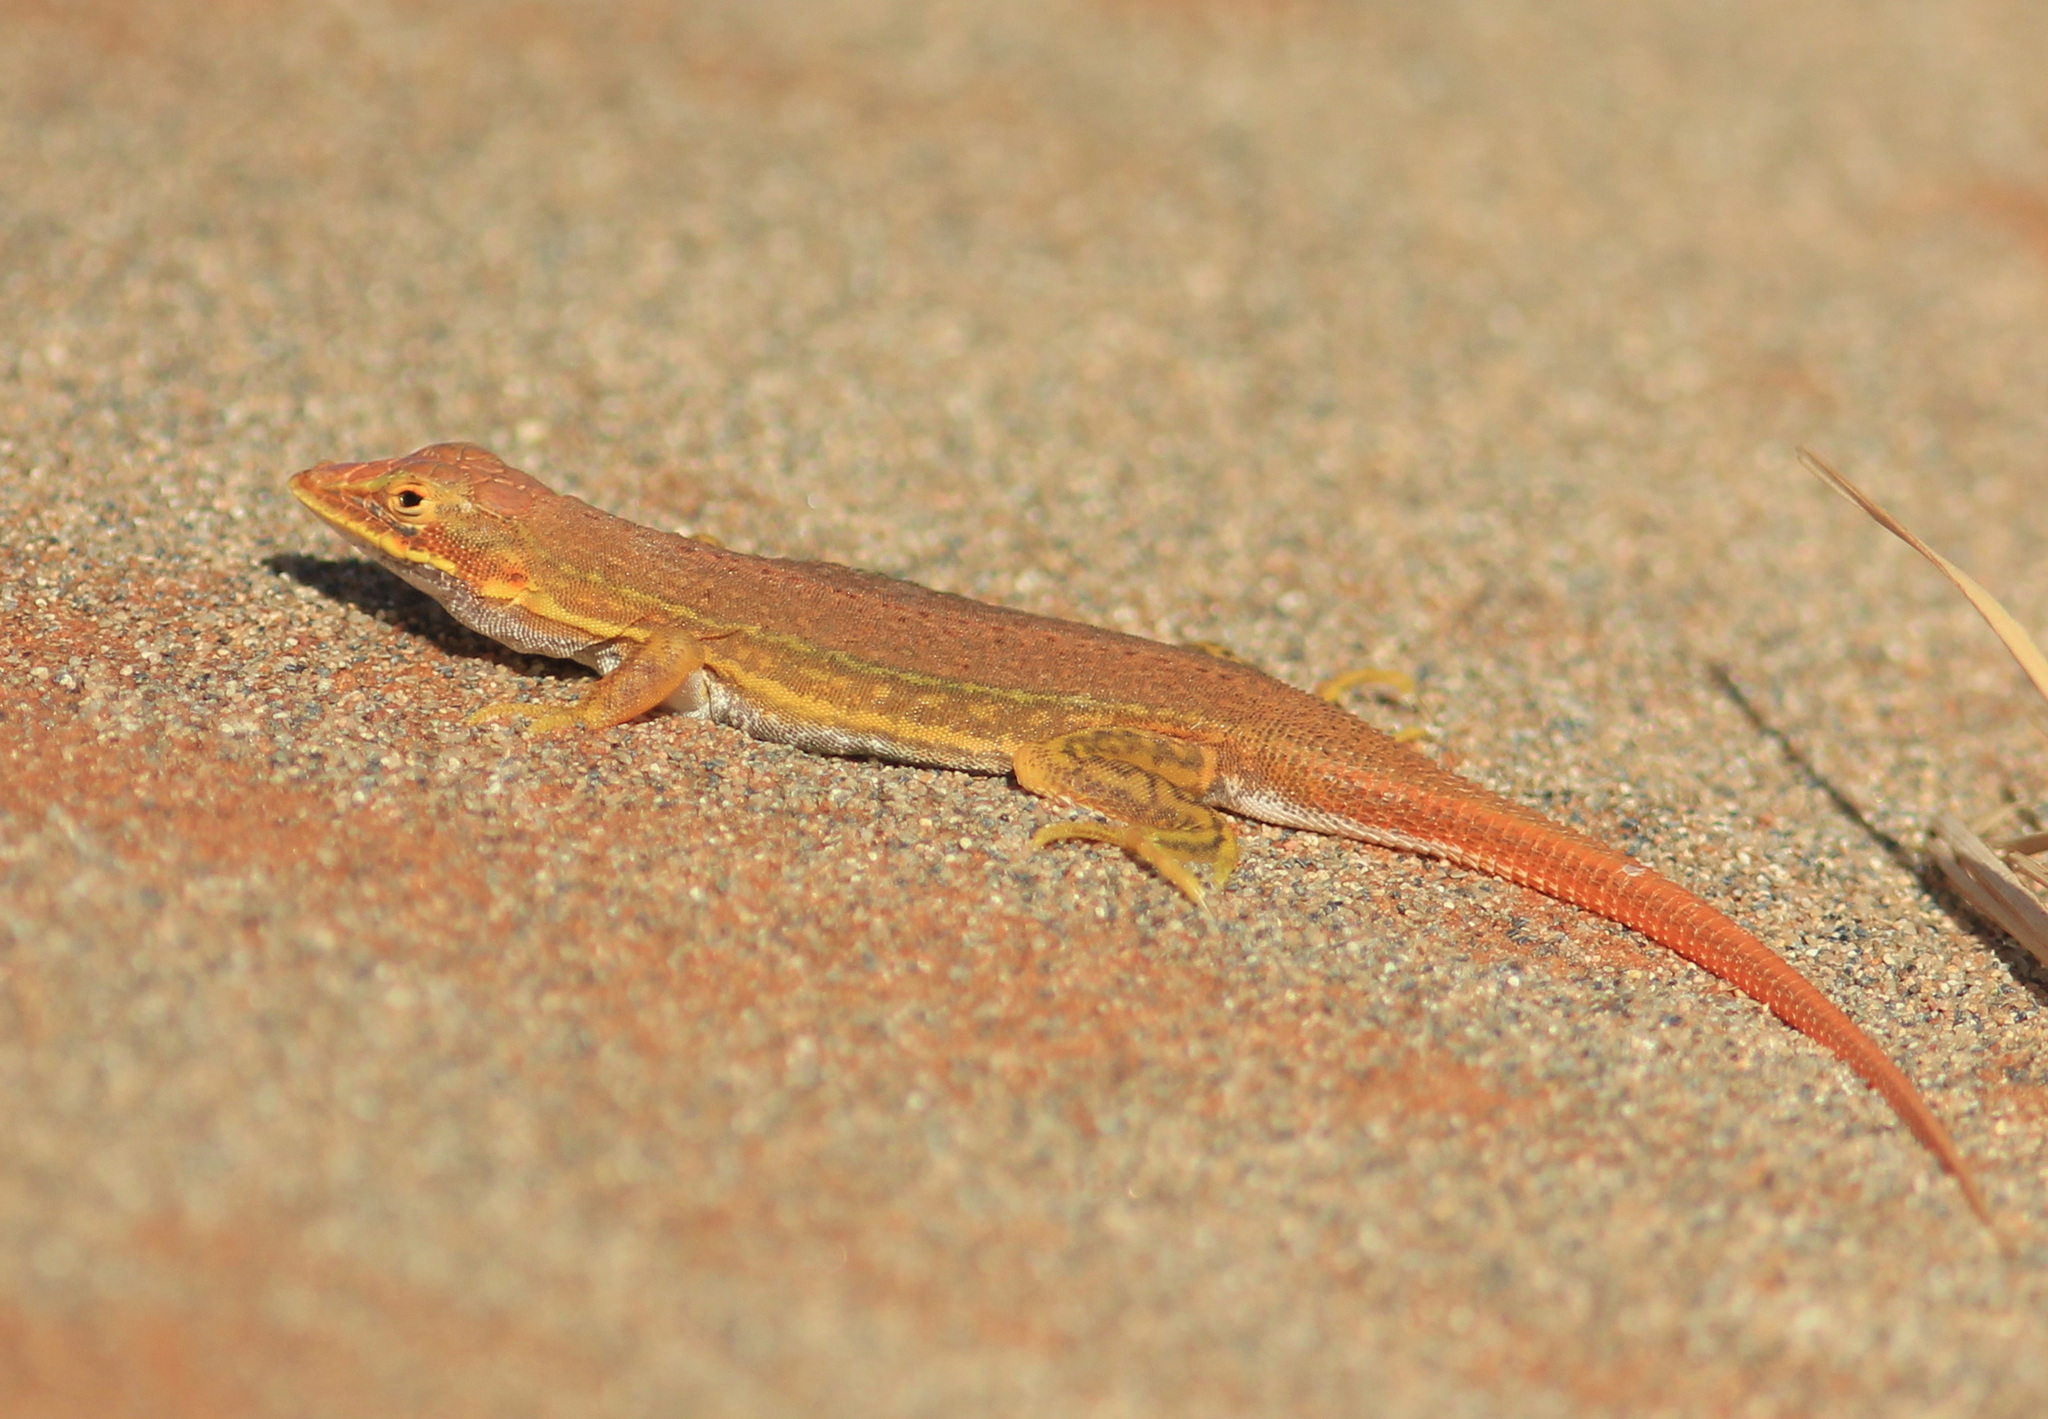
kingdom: Animalia
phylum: Chordata
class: Squamata
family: Lacertidae
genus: Meroles
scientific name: Meroles cuneirostris
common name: Wedge-snouted desert lizard
